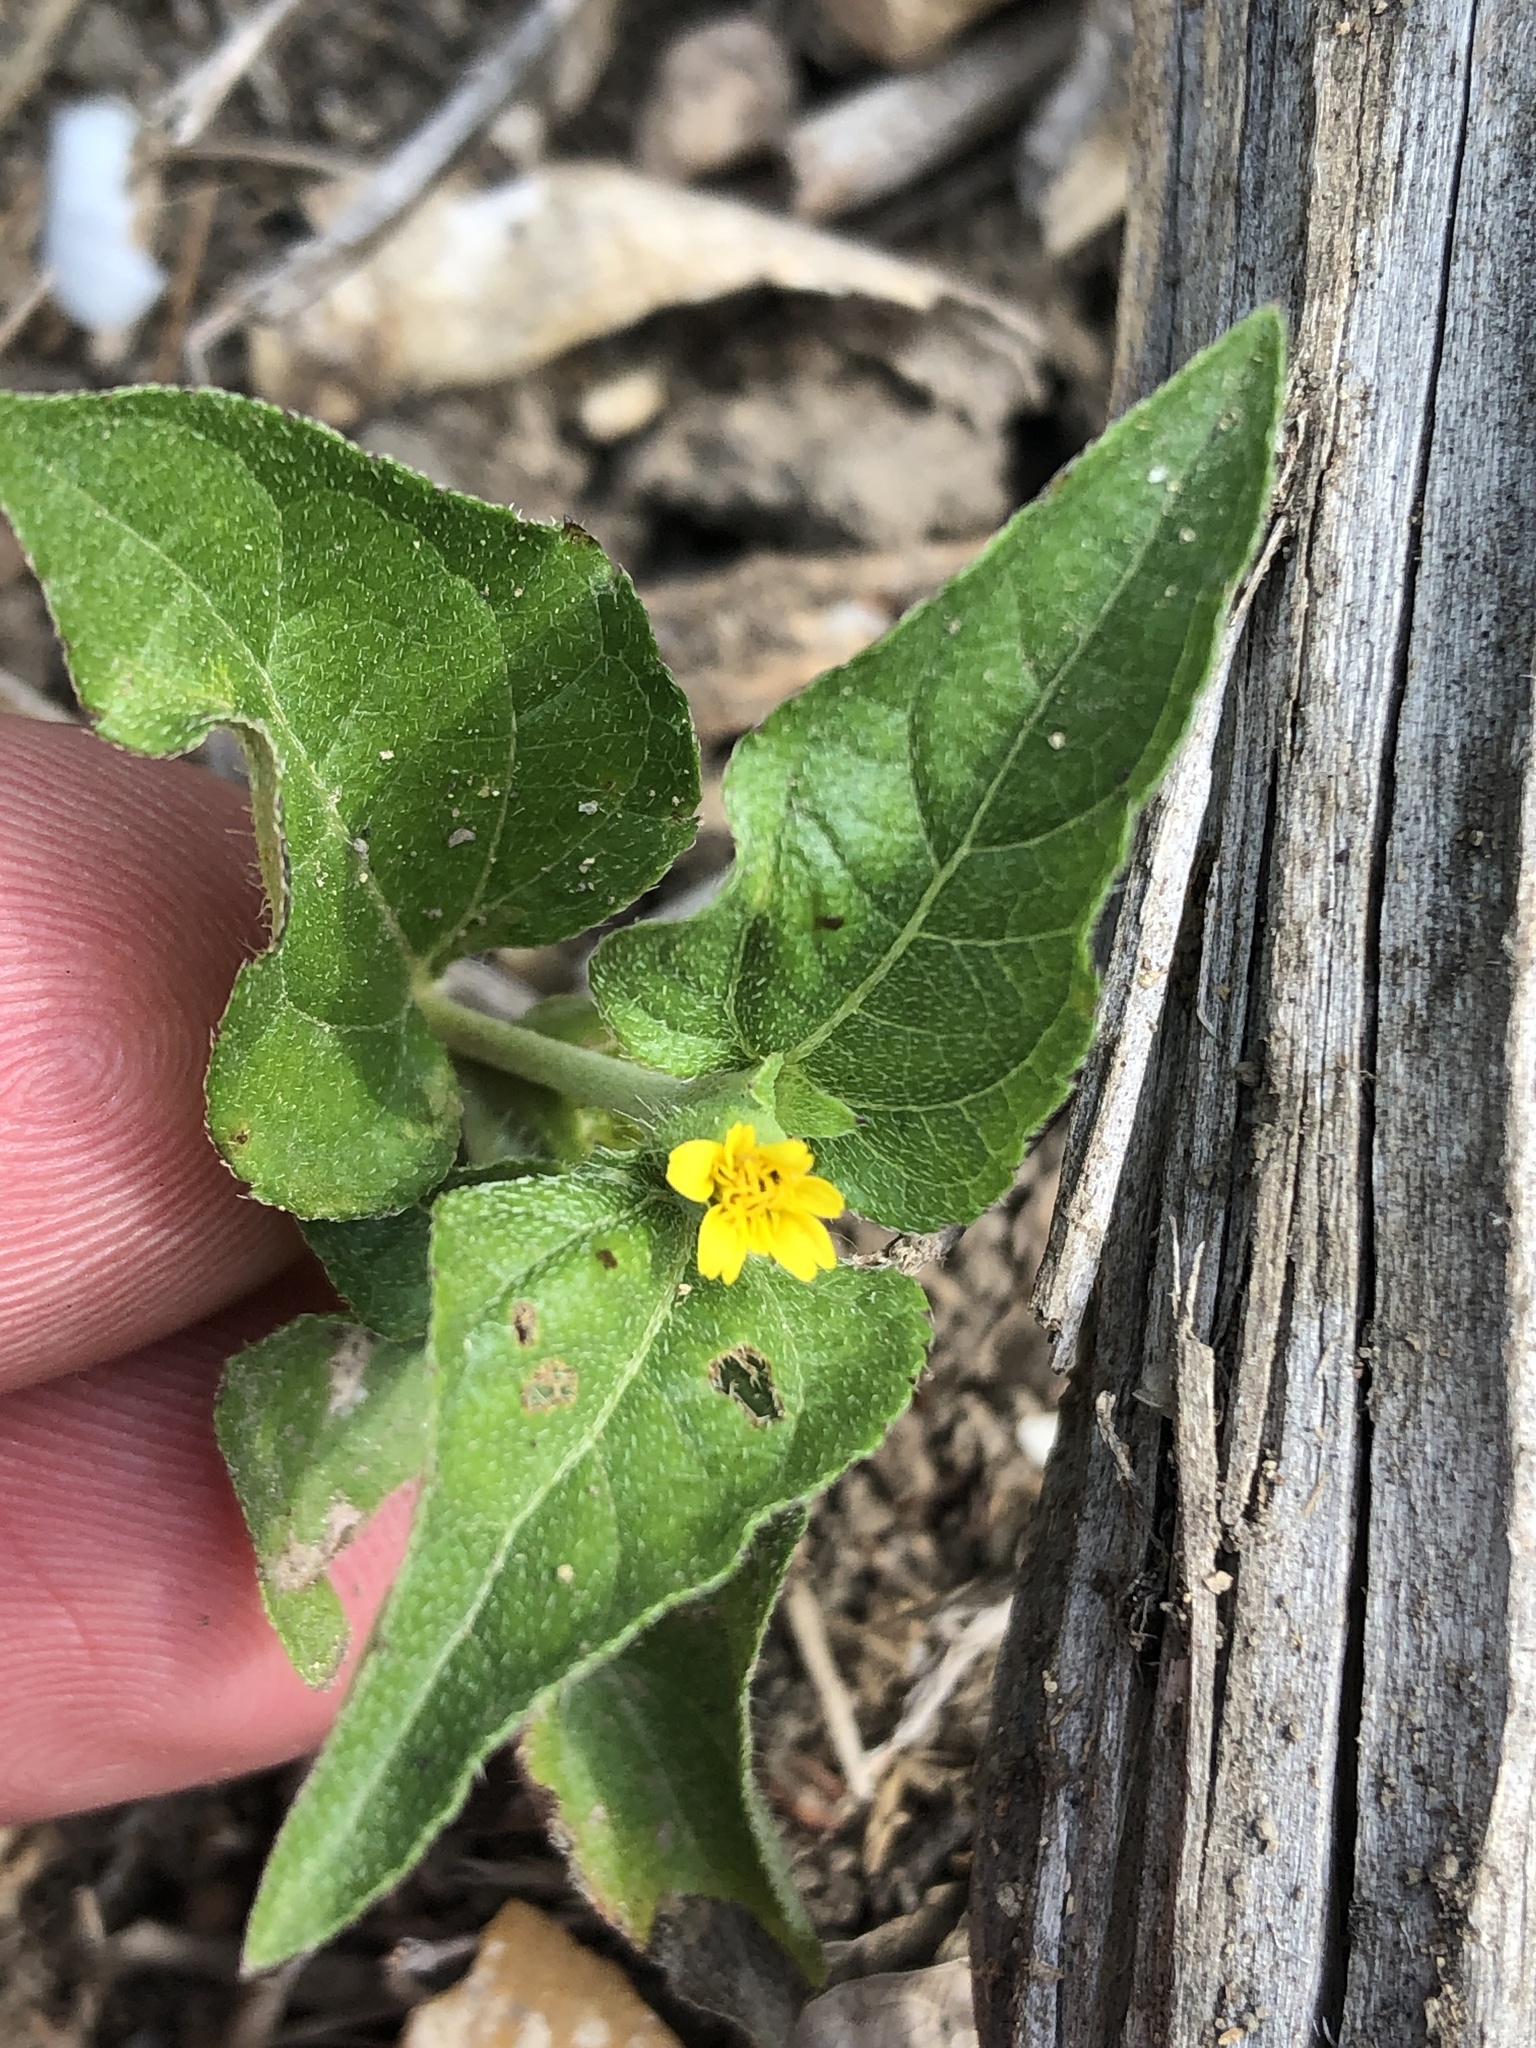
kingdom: Plantae
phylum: Tracheophyta
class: Magnoliopsida
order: Asterales
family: Asteraceae
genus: Calyptocarpus
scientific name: Calyptocarpus vialis
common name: Straggler daisy
